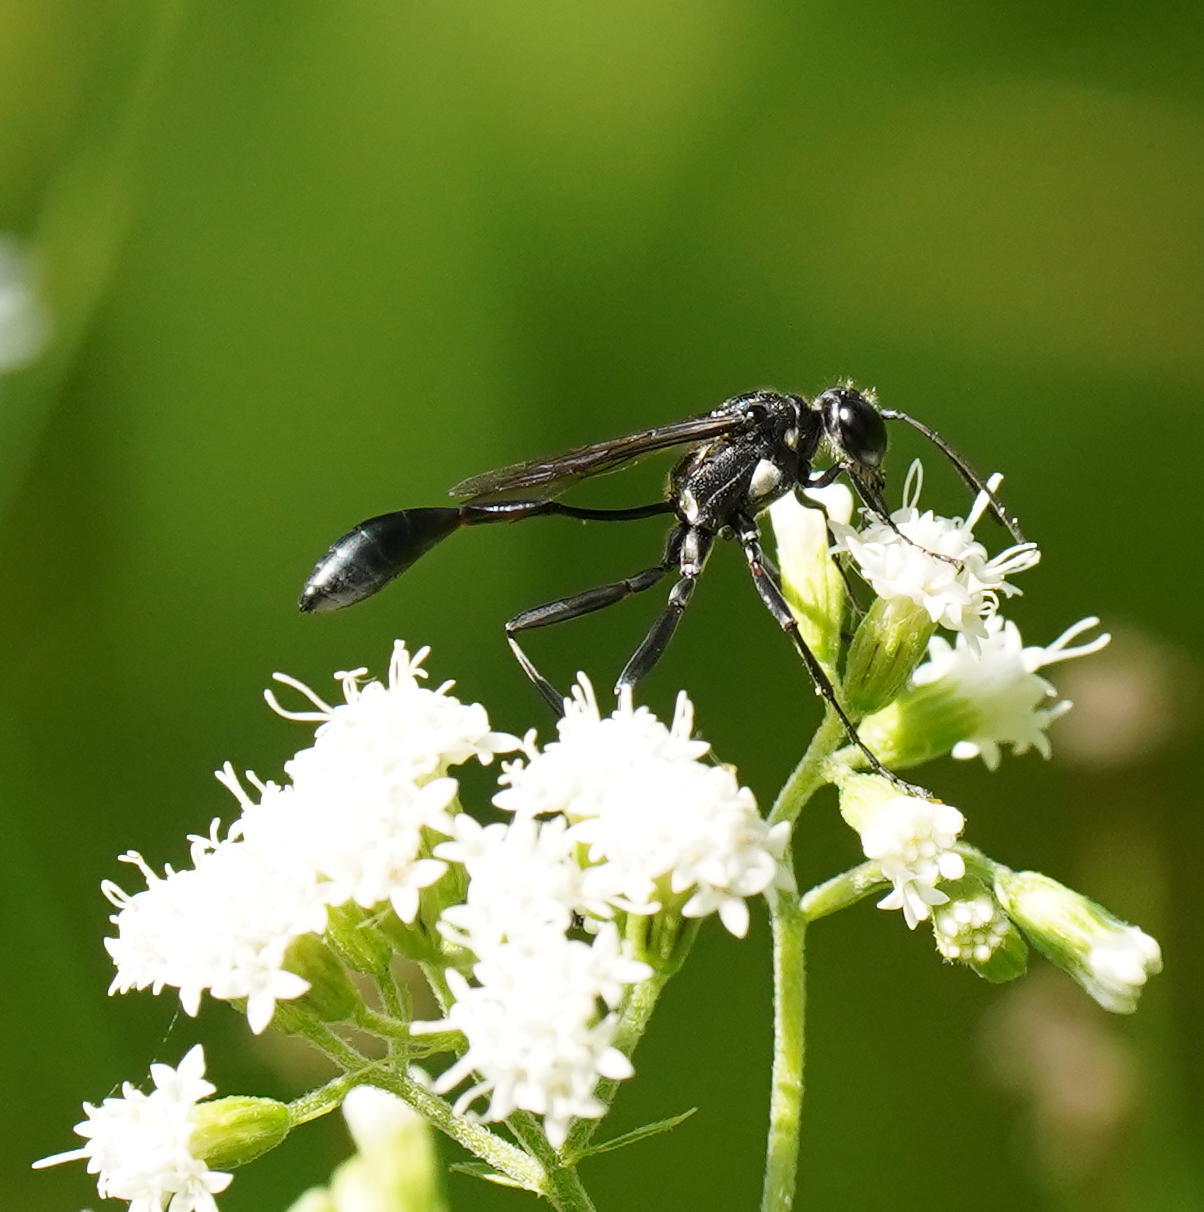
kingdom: Animalia
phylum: Arthropoda
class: Insecta
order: Hymenoptera
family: Sphecidae
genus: Eremnophila
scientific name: Eremnophila aureonotata
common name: Gold-marked thread-waisted wasp
